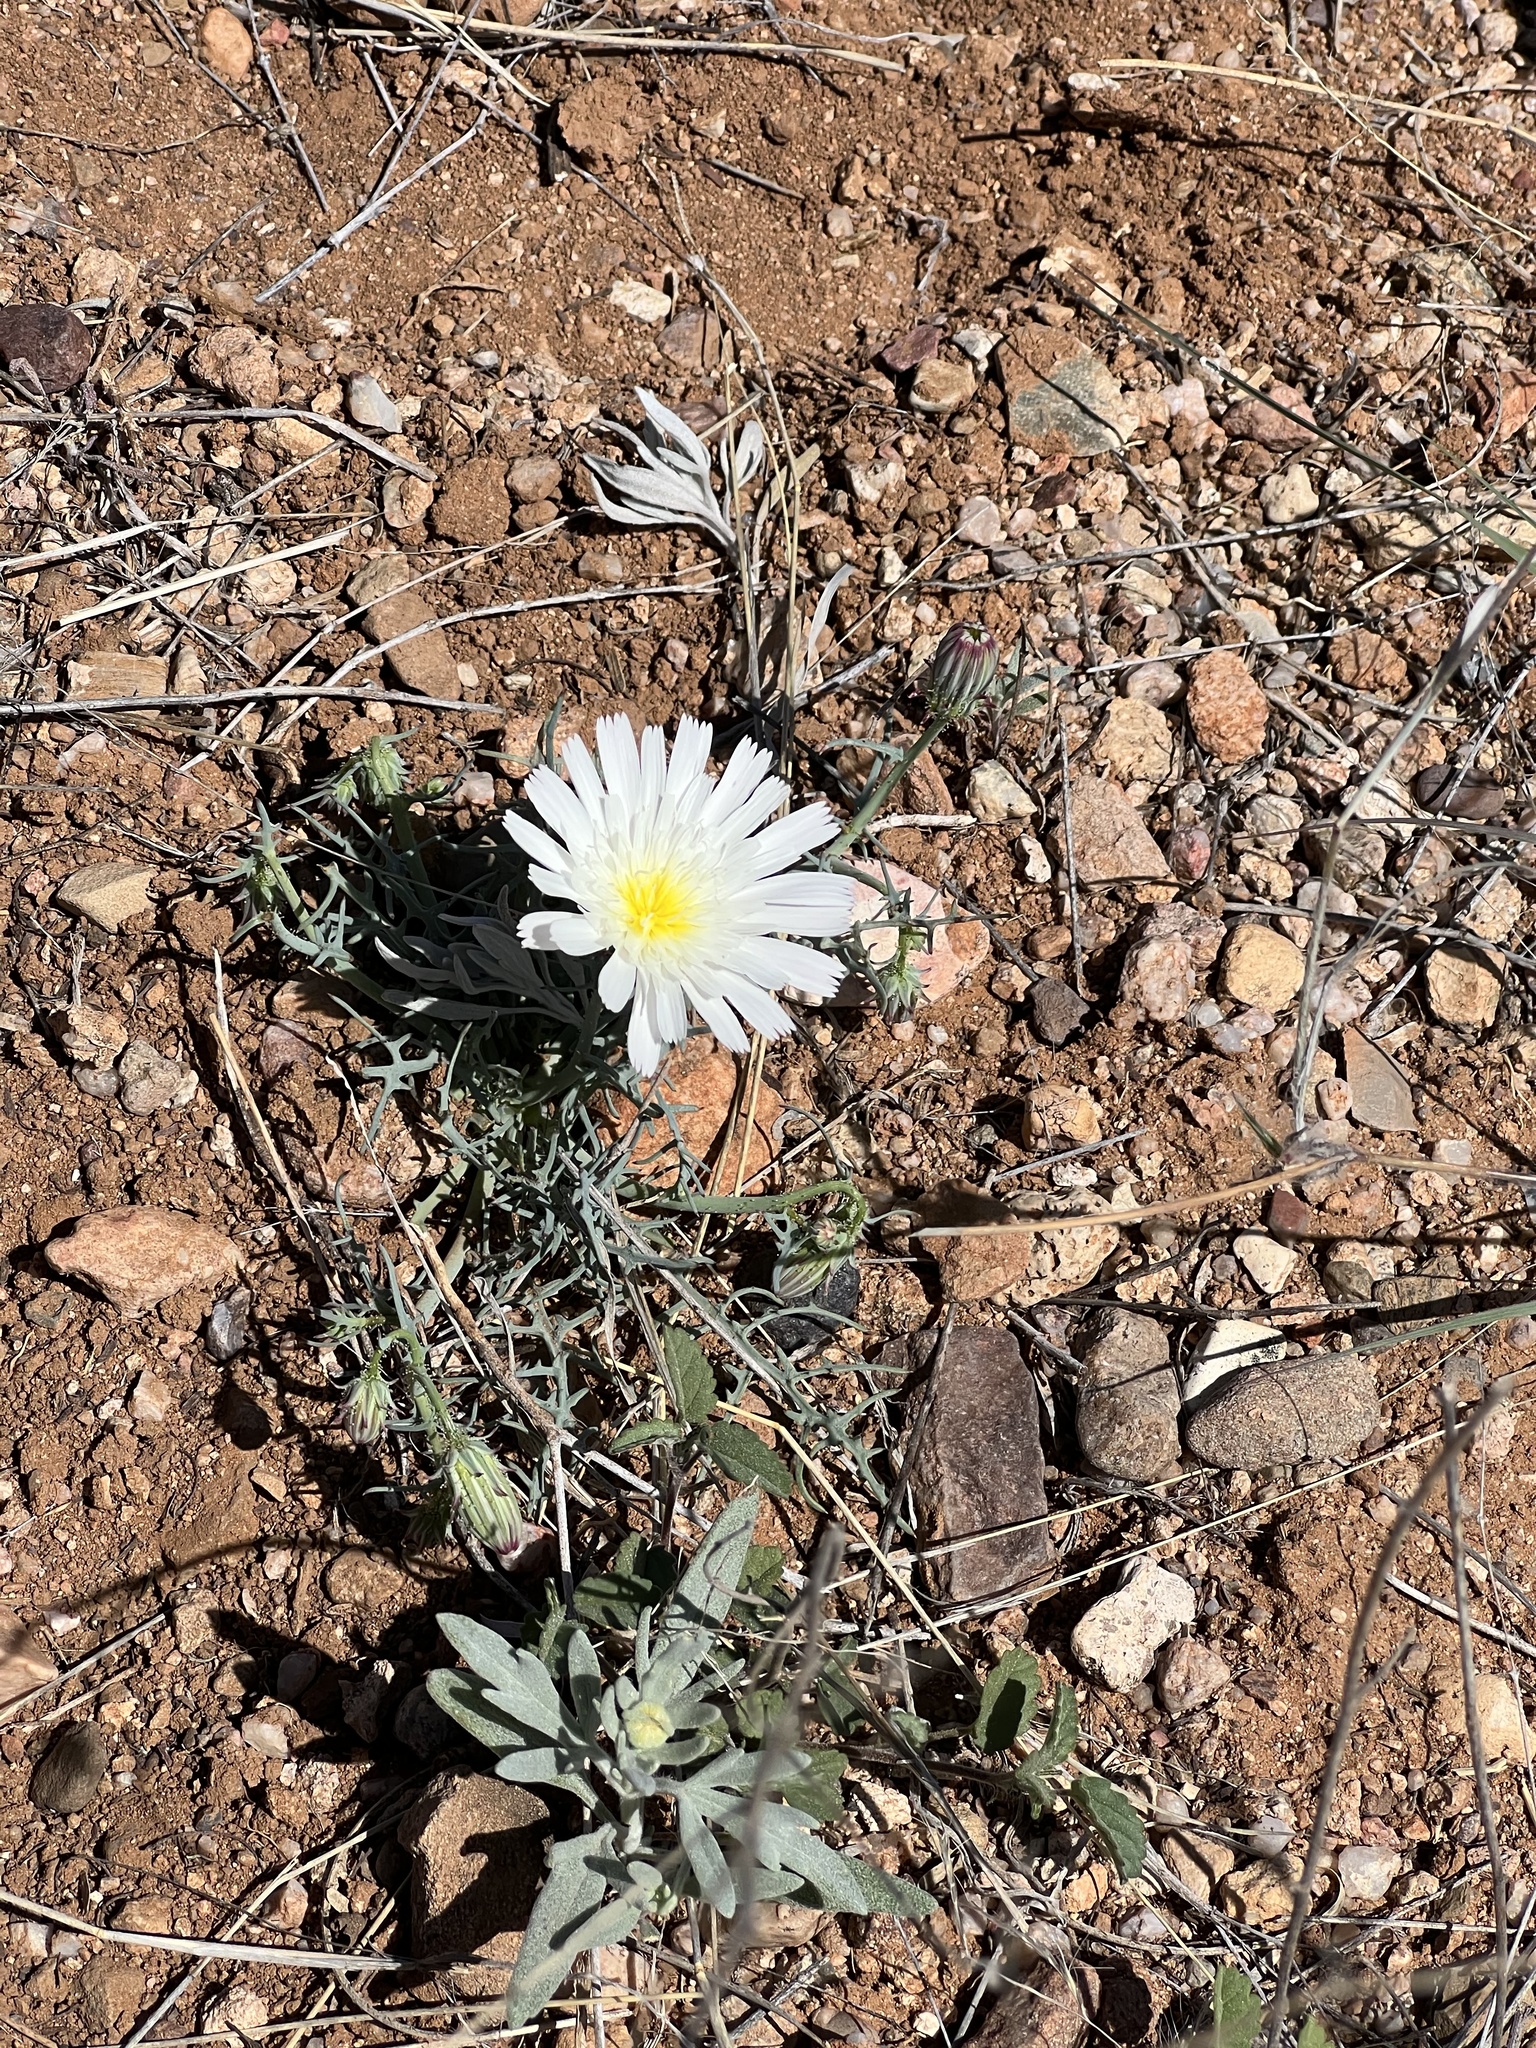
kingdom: Plantae
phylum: Tracheophyta
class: Magnoliopsida
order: Asterales
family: Asteraceae
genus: Calycoseris
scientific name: Calycoseris wrightii
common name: White tackstem
